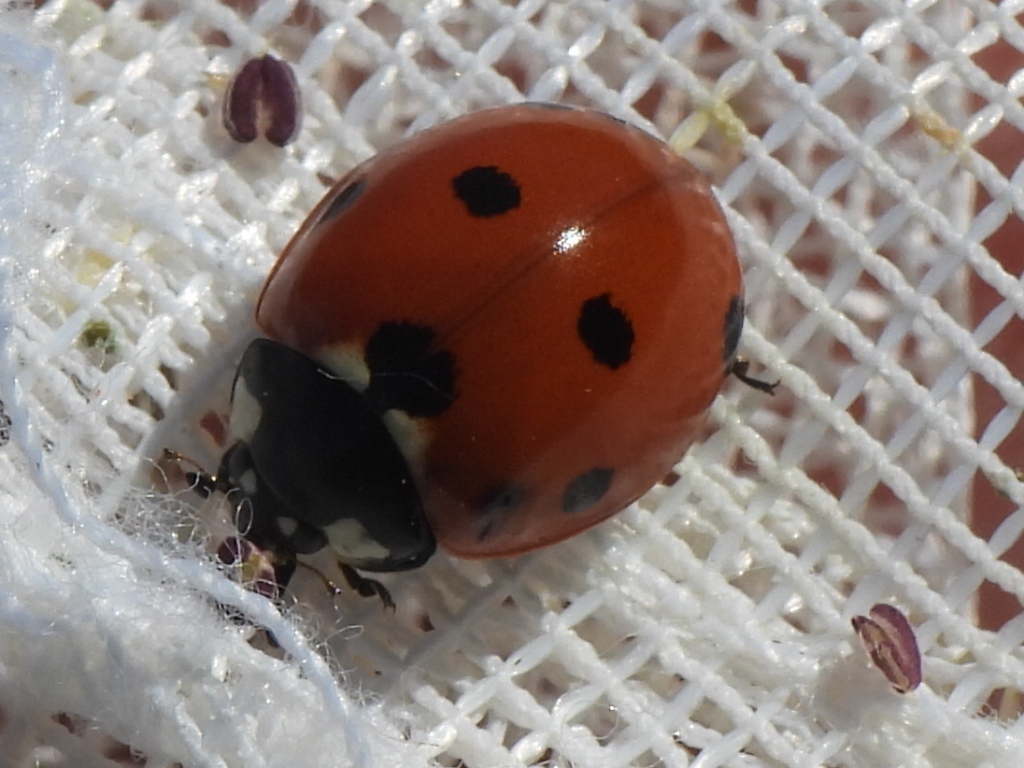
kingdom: Animalia
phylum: Arthropoda
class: Insecta
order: Coleoptera
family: Coccinellidae
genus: Coccinella
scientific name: Coccinella septempunctata
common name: Sevenspotted lady beetle
